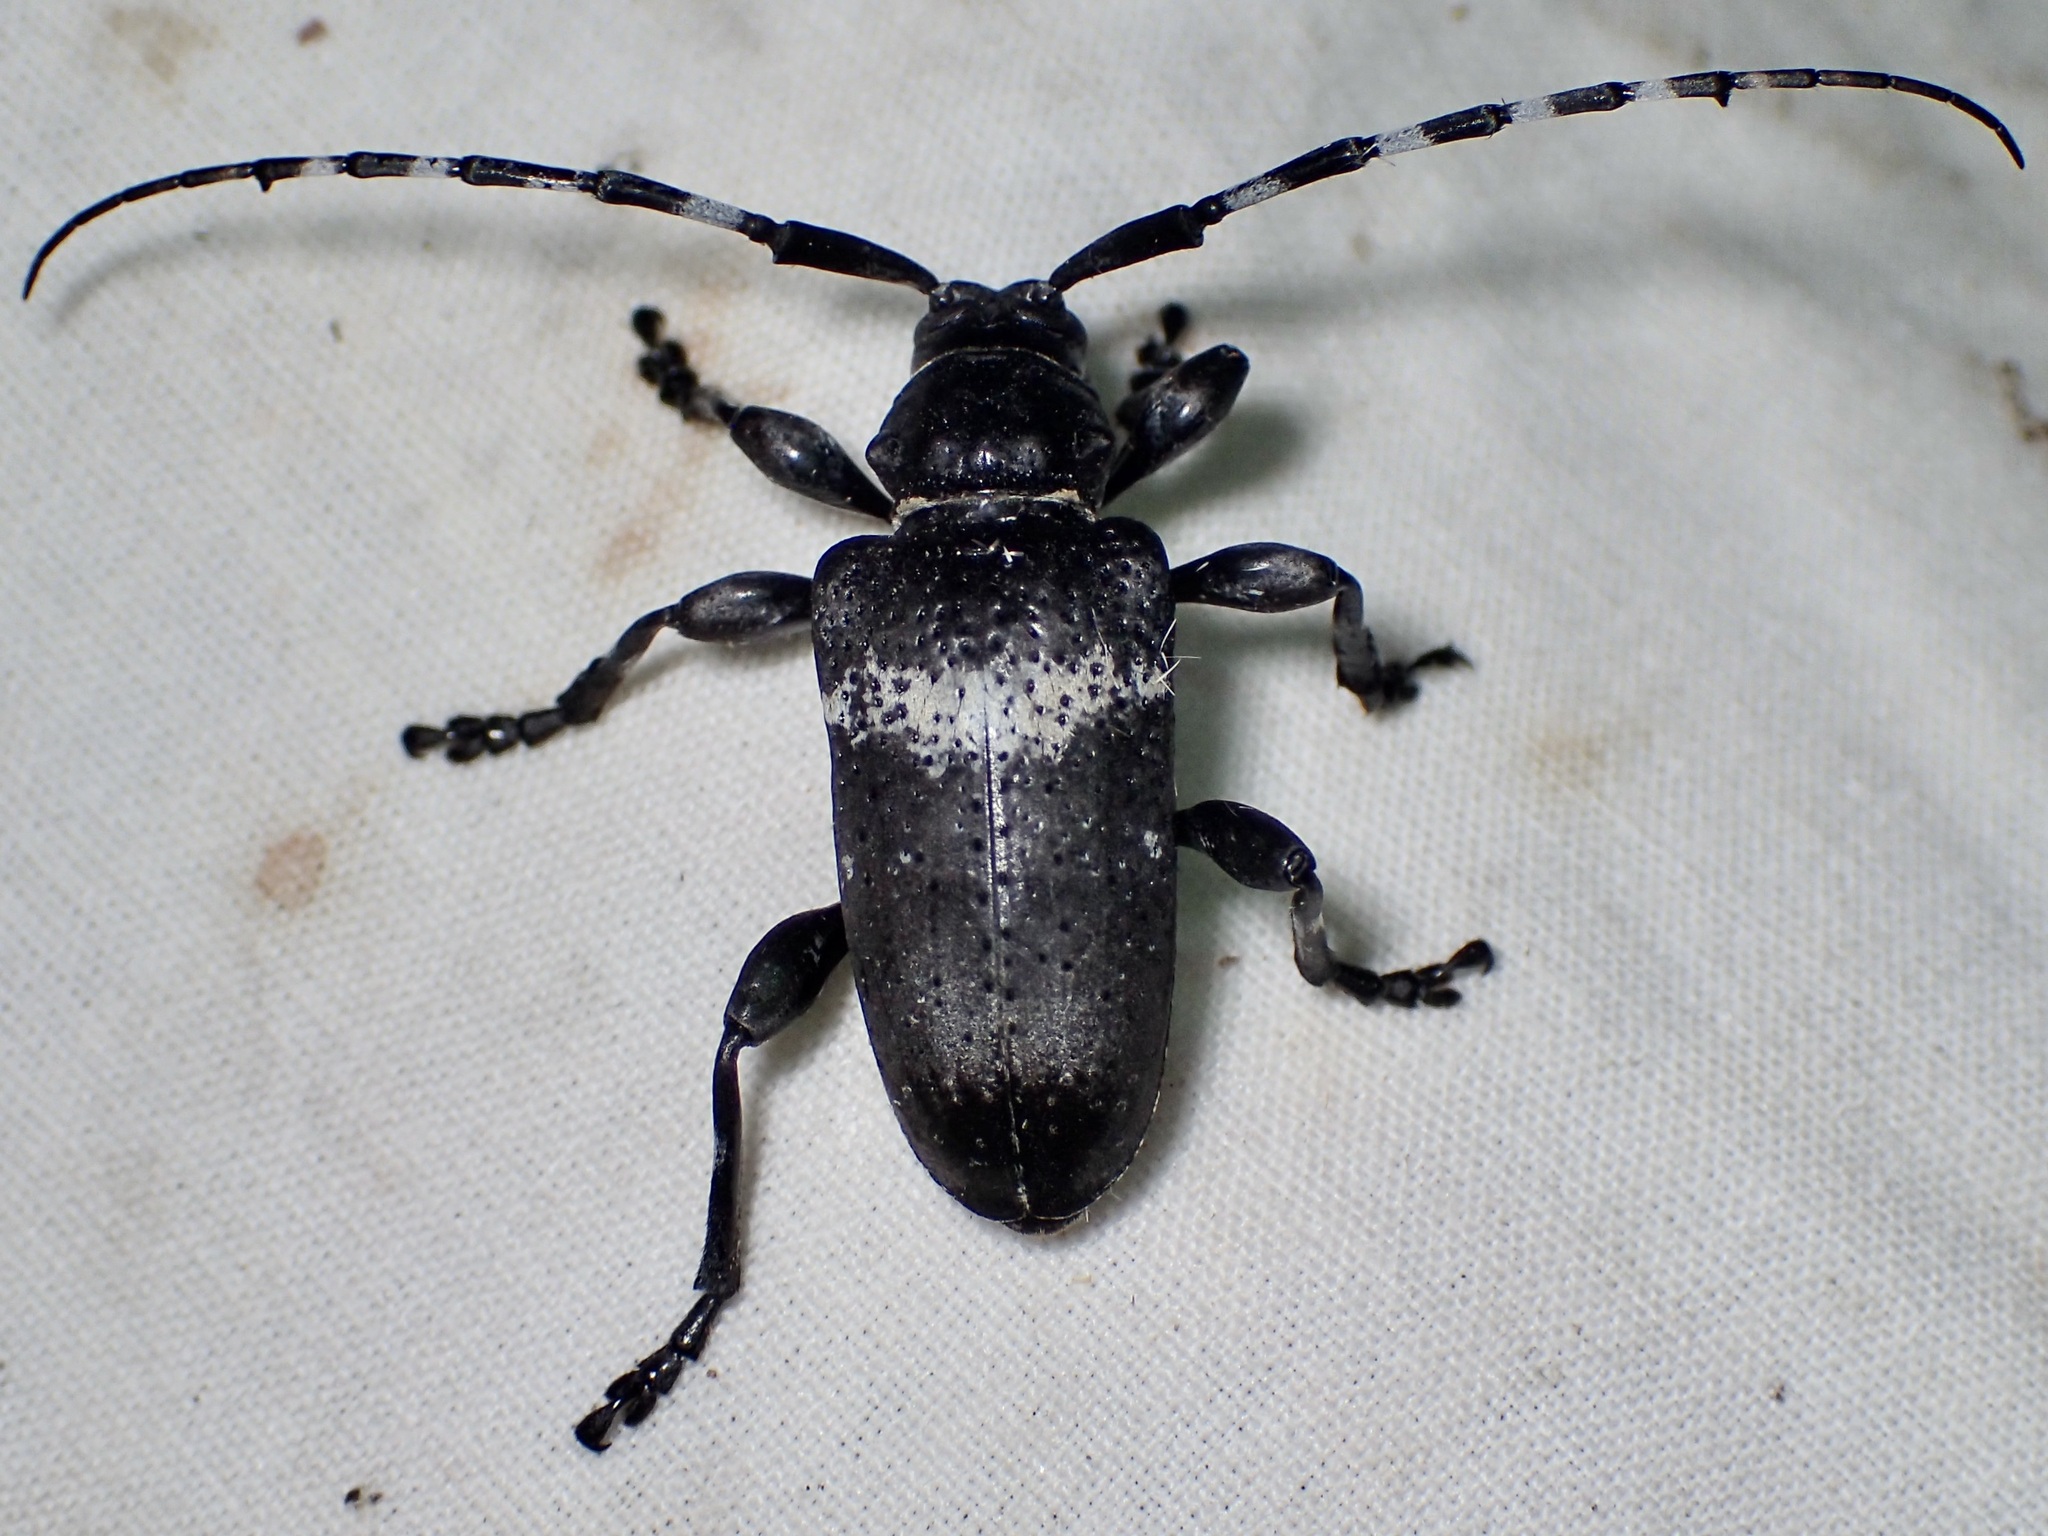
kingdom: Animalia
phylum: Arthropoda
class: Insecta
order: Coleoptera
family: Cerambycidae
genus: Coenopoeus
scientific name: Coenopoeus palmeri
